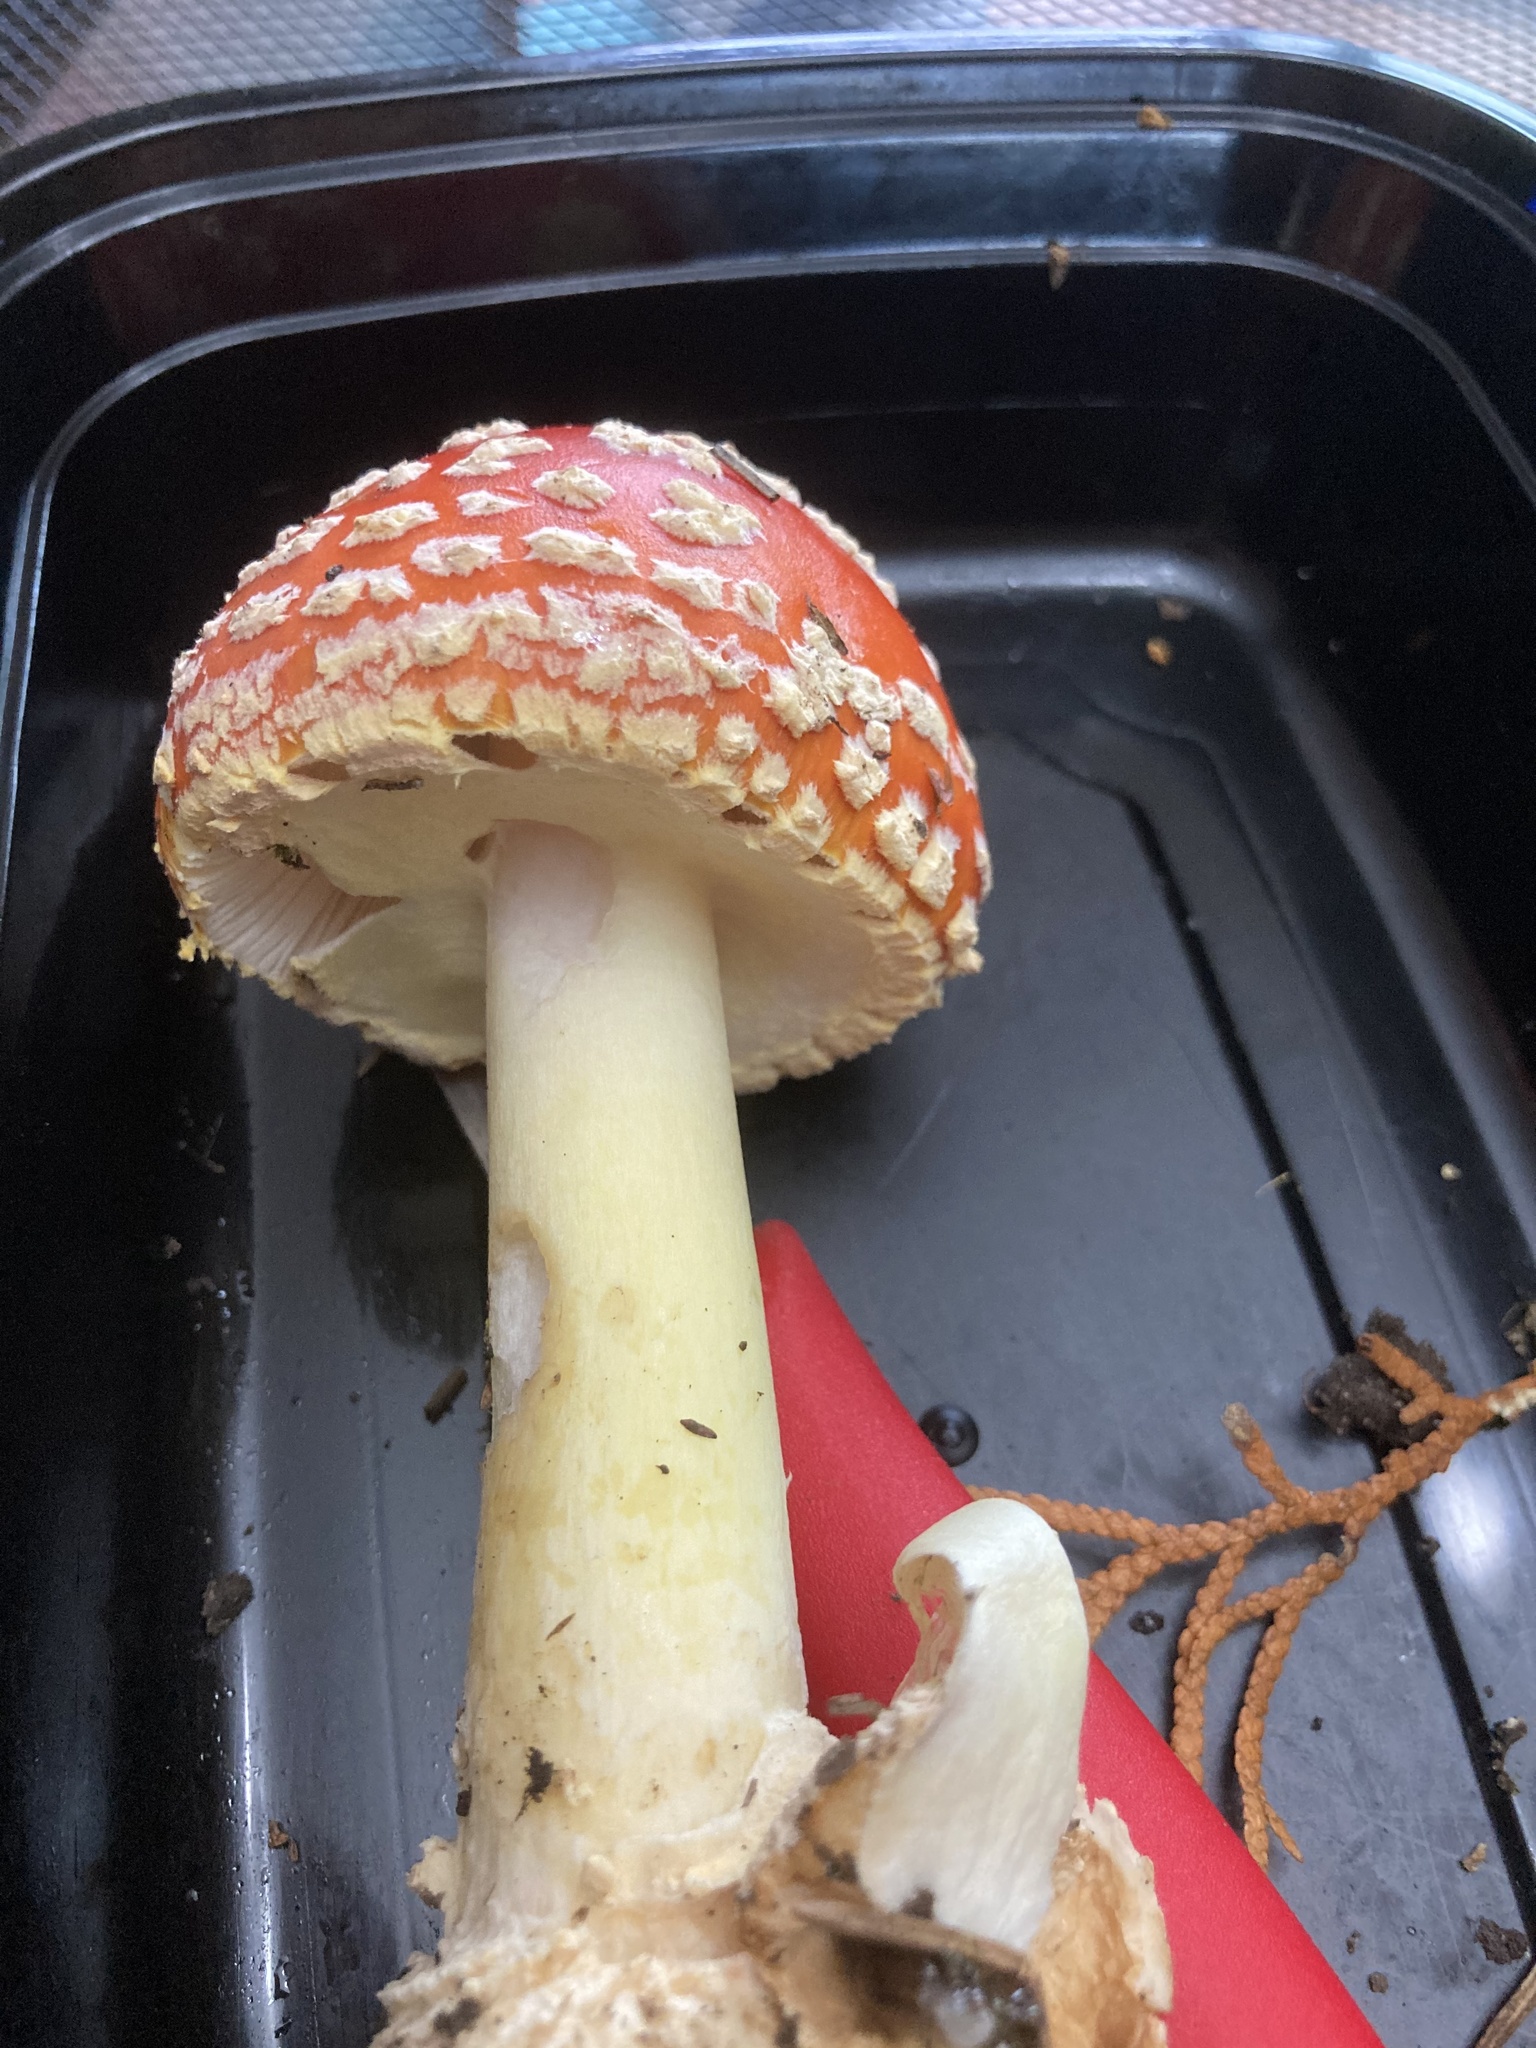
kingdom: Fungi
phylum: Basidiomycota
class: Agaricomycetes
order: Agaricales
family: Amanitaceae
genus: Amanita
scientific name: Amanita muscaria
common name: Fly agaric
